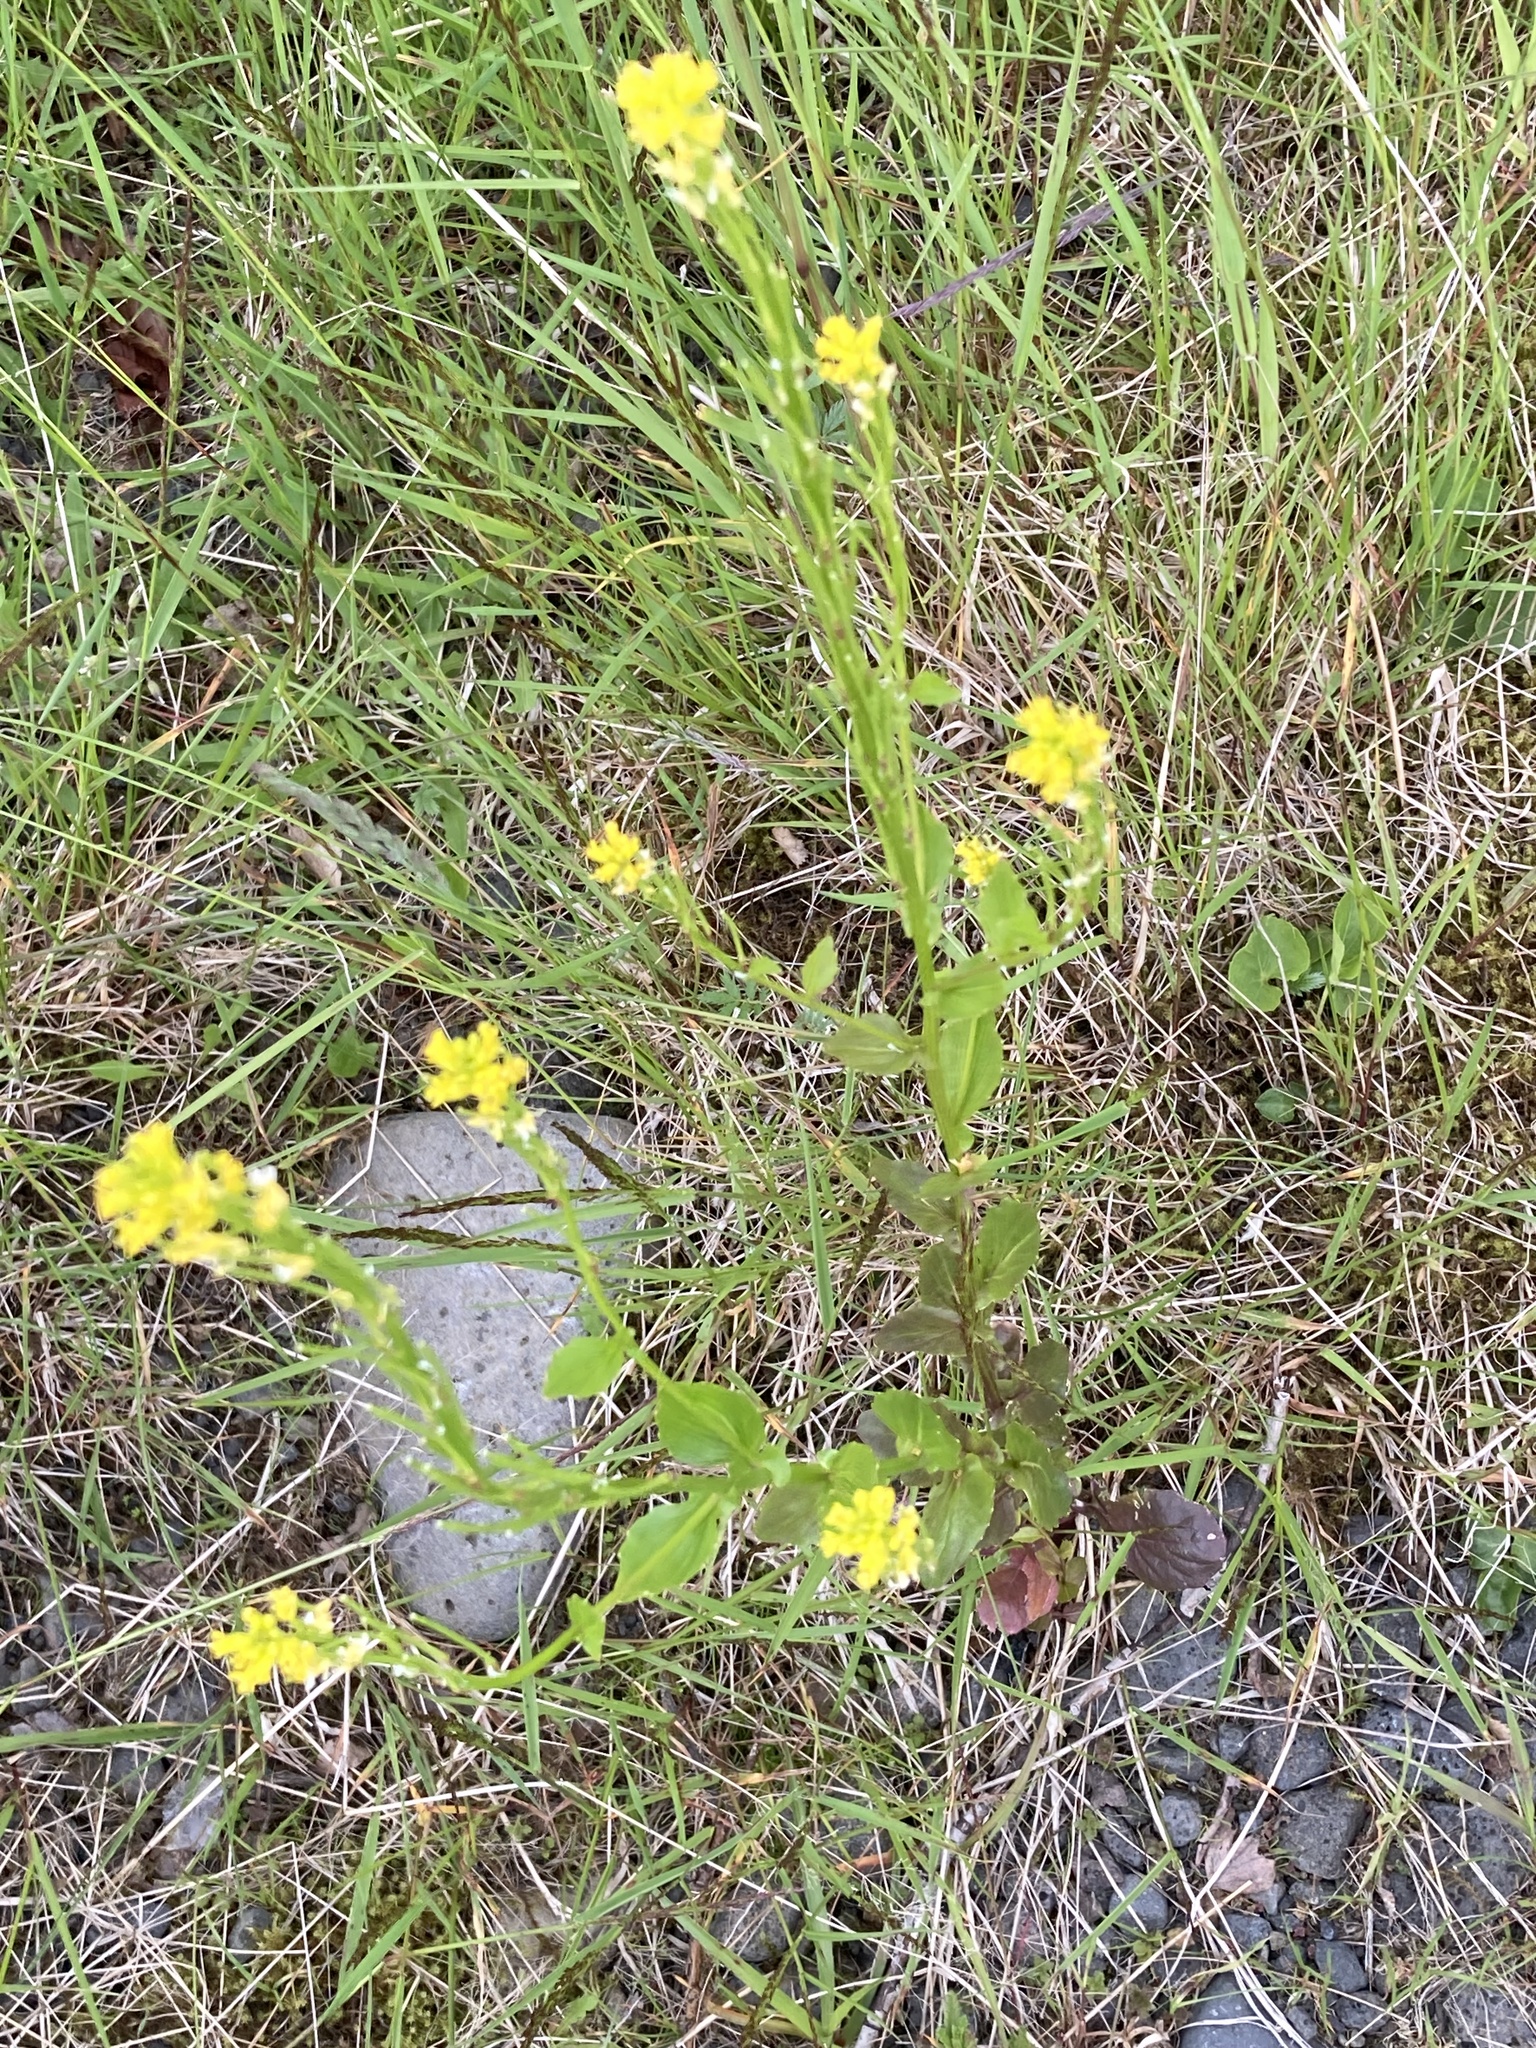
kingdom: Plantae
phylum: Tracheophyta
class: Magnoliopsida
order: Brassicales
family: Brassicaceae
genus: Barbarea
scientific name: Barbarea stricta
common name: Small-flowered winter-cress
